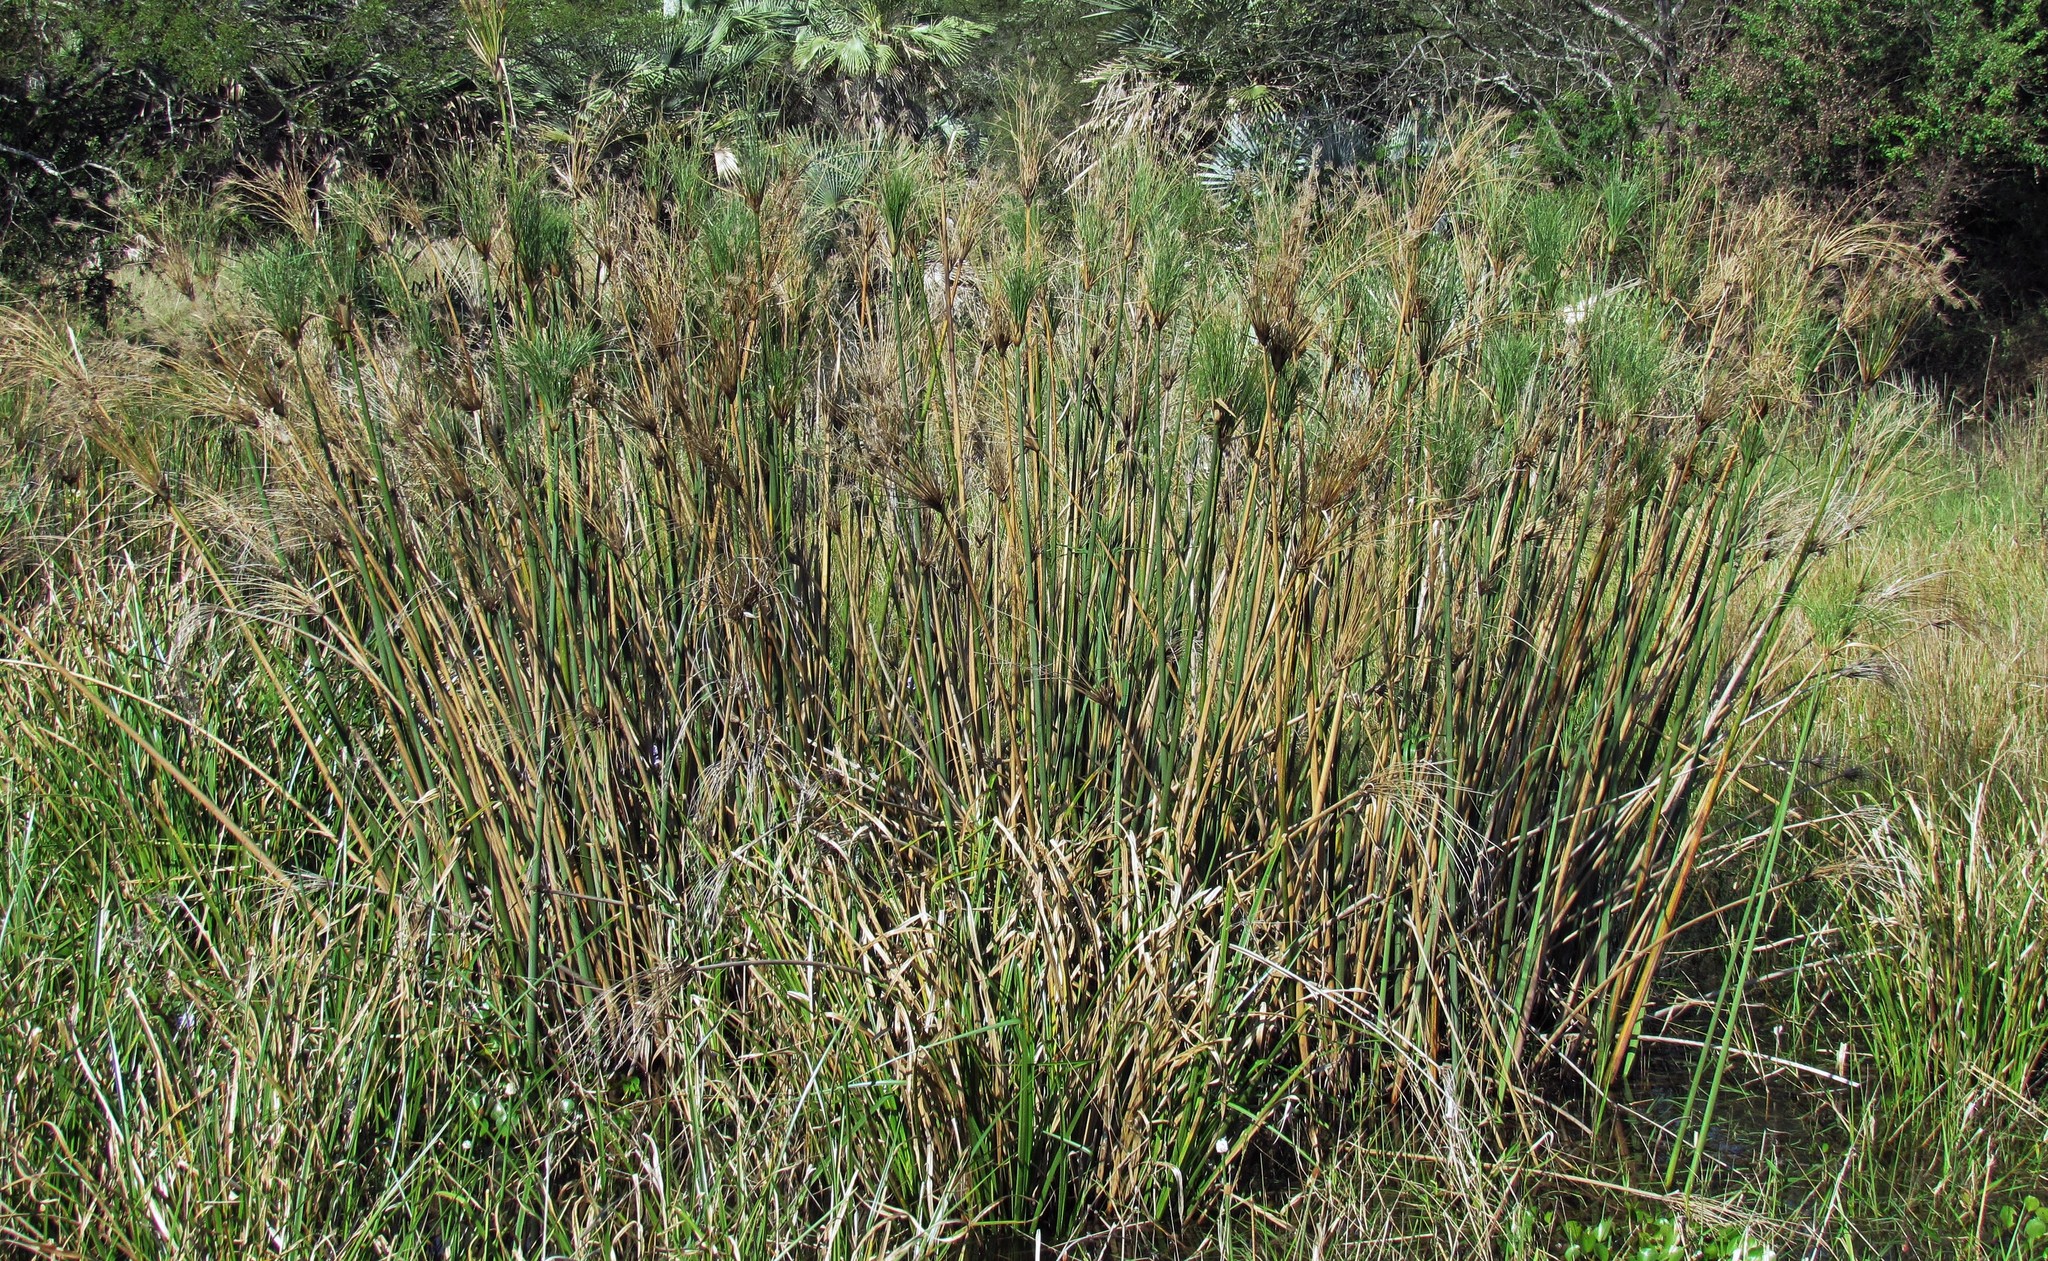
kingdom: Plantae
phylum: Tracheophyta
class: Liliopsida
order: Poales
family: Cyperaceae
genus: Cyperus
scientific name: Cyperus giganteus
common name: Giant flat sedge
